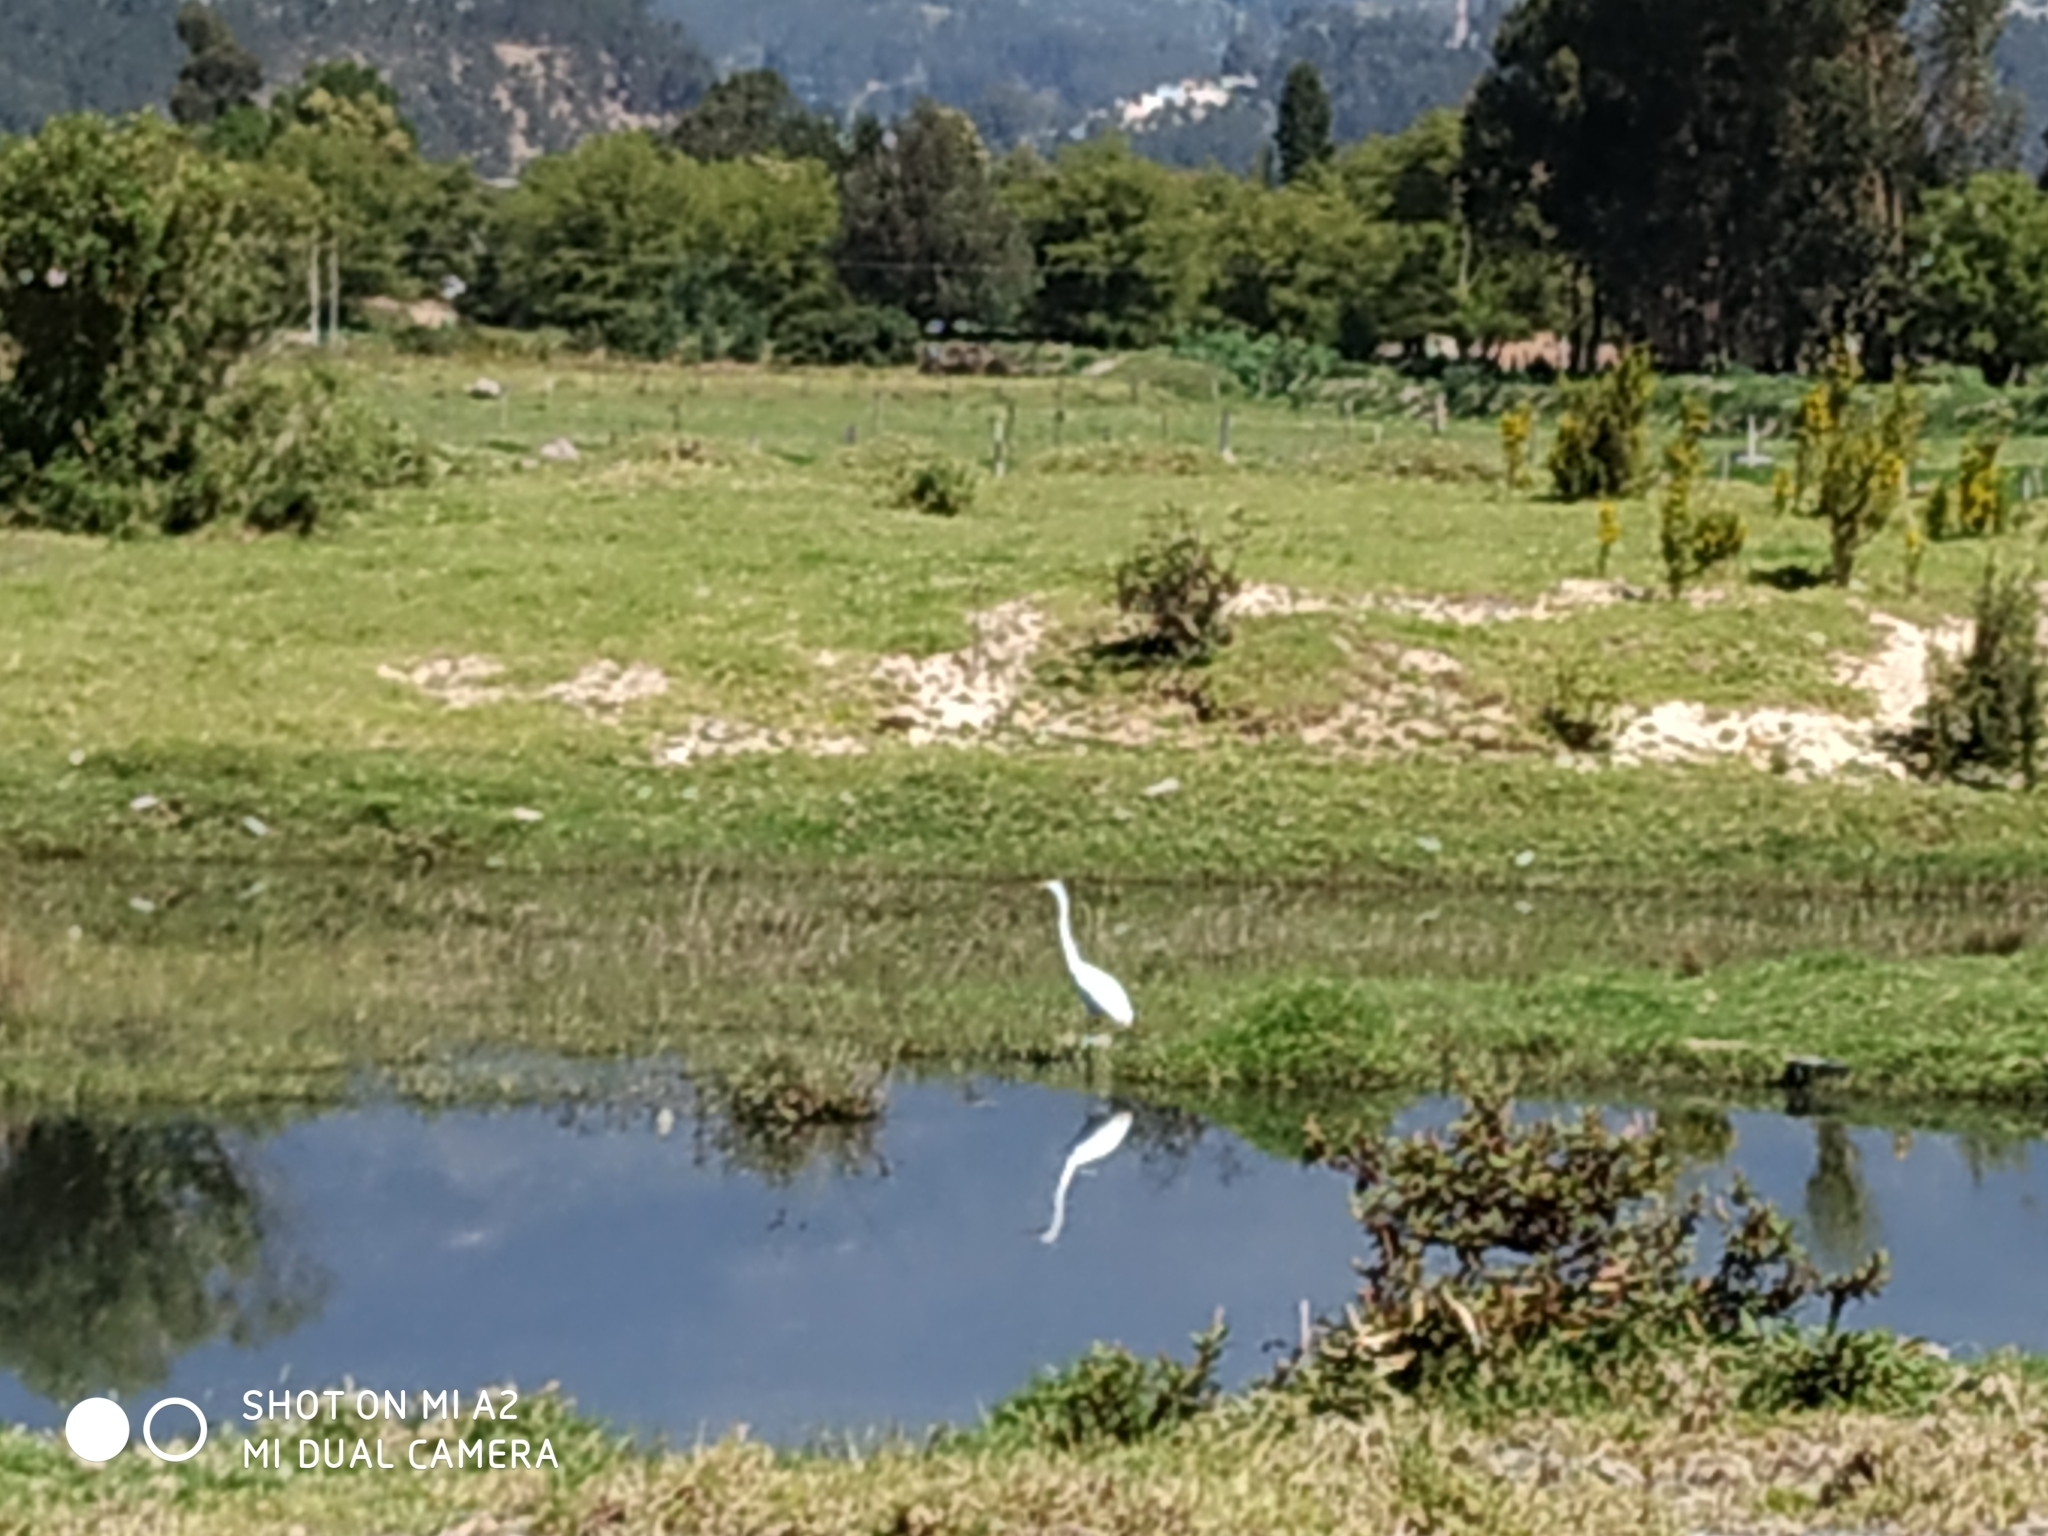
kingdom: Animalia
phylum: Chordata
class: Aves
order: Pelecaniformes
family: Ardeidae
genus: Ardea
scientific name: Ardea alba
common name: Great egret
